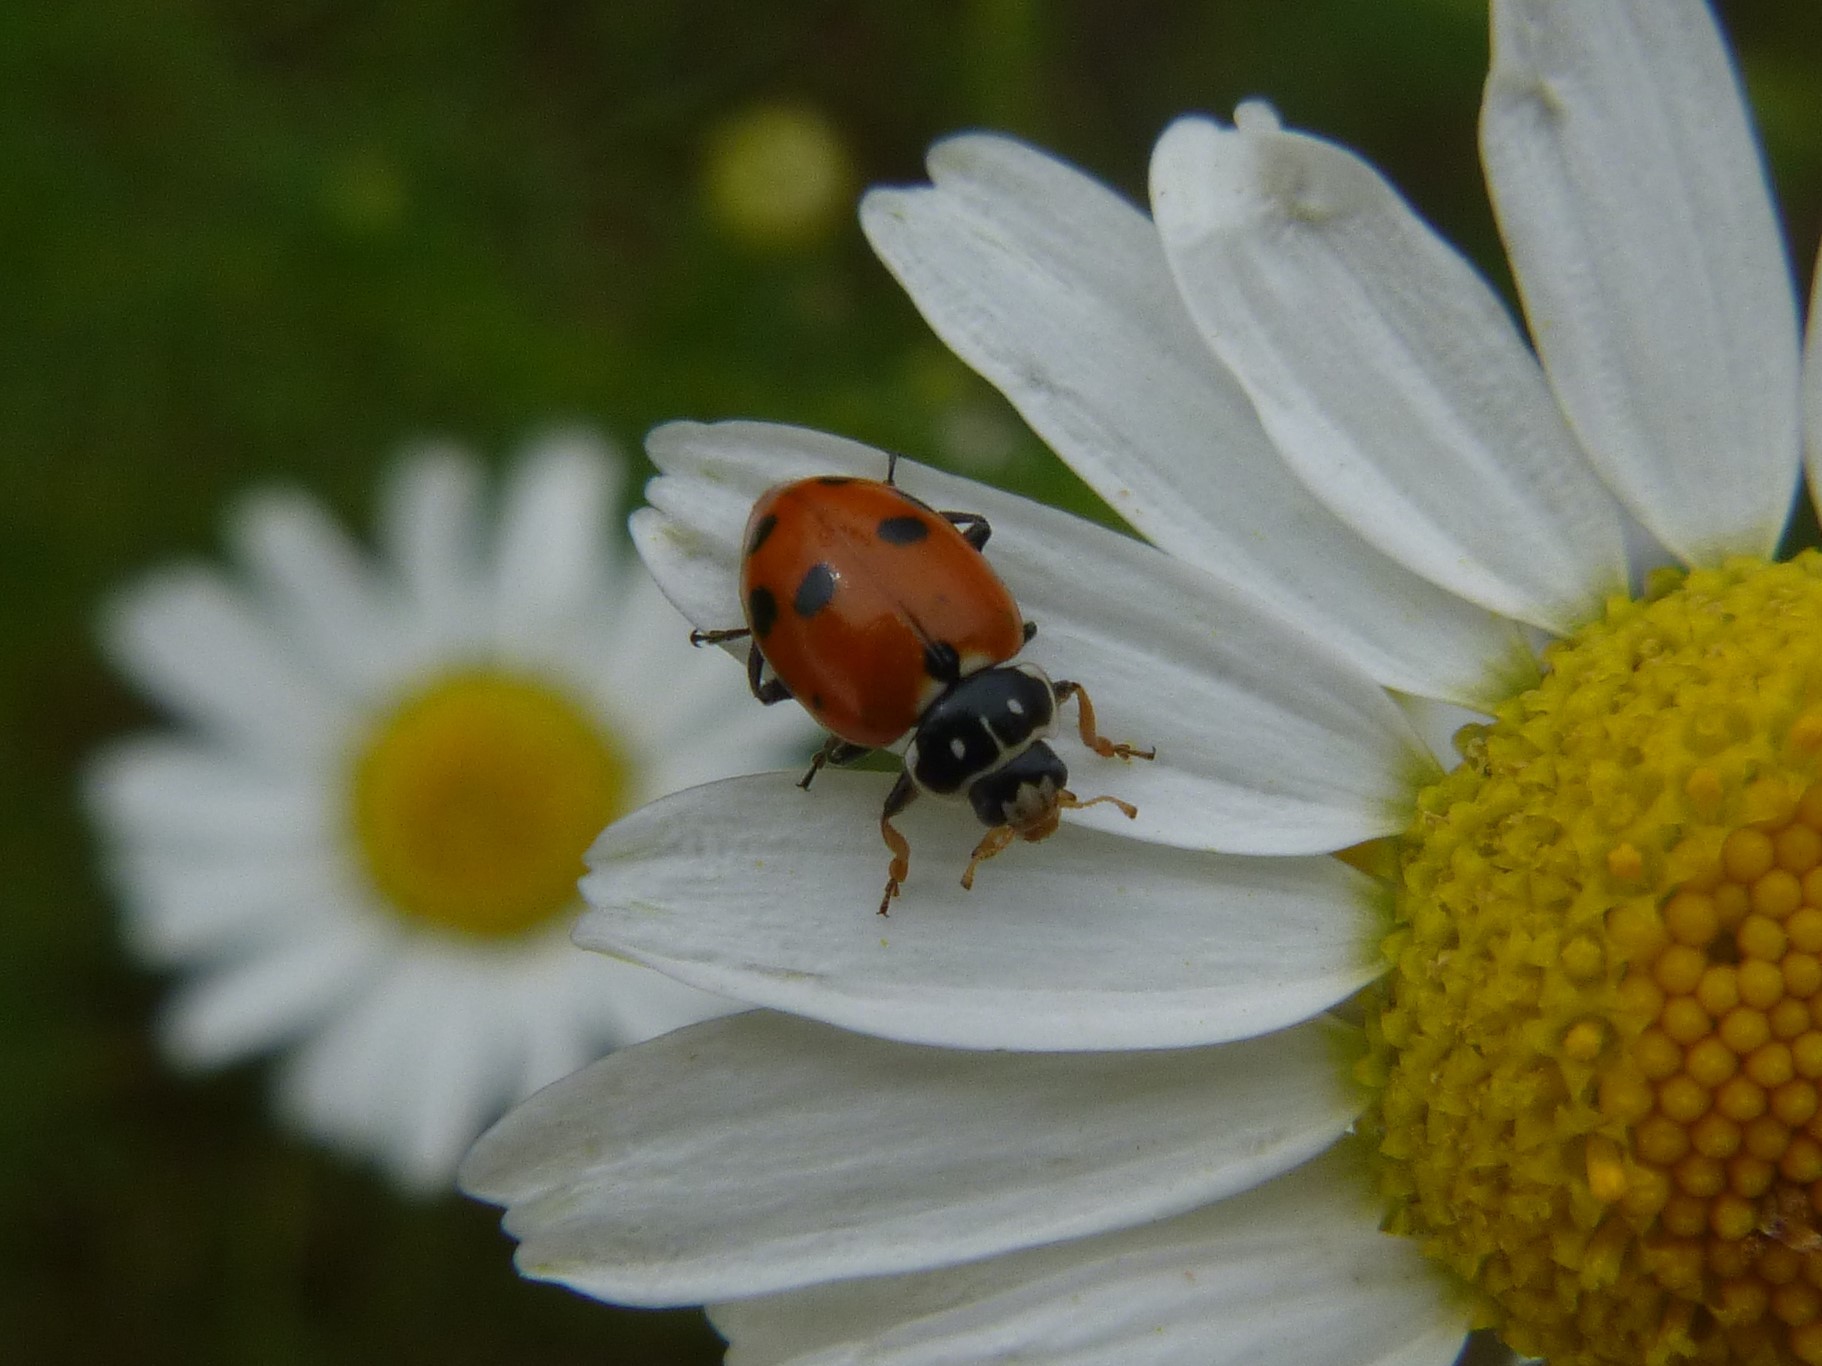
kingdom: Animalia
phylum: Arthropoda
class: Insecta
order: Coleoptera
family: Coccinellidae
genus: Hippodamia
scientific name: Hippodamia variegata
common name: Ladybird beetle
